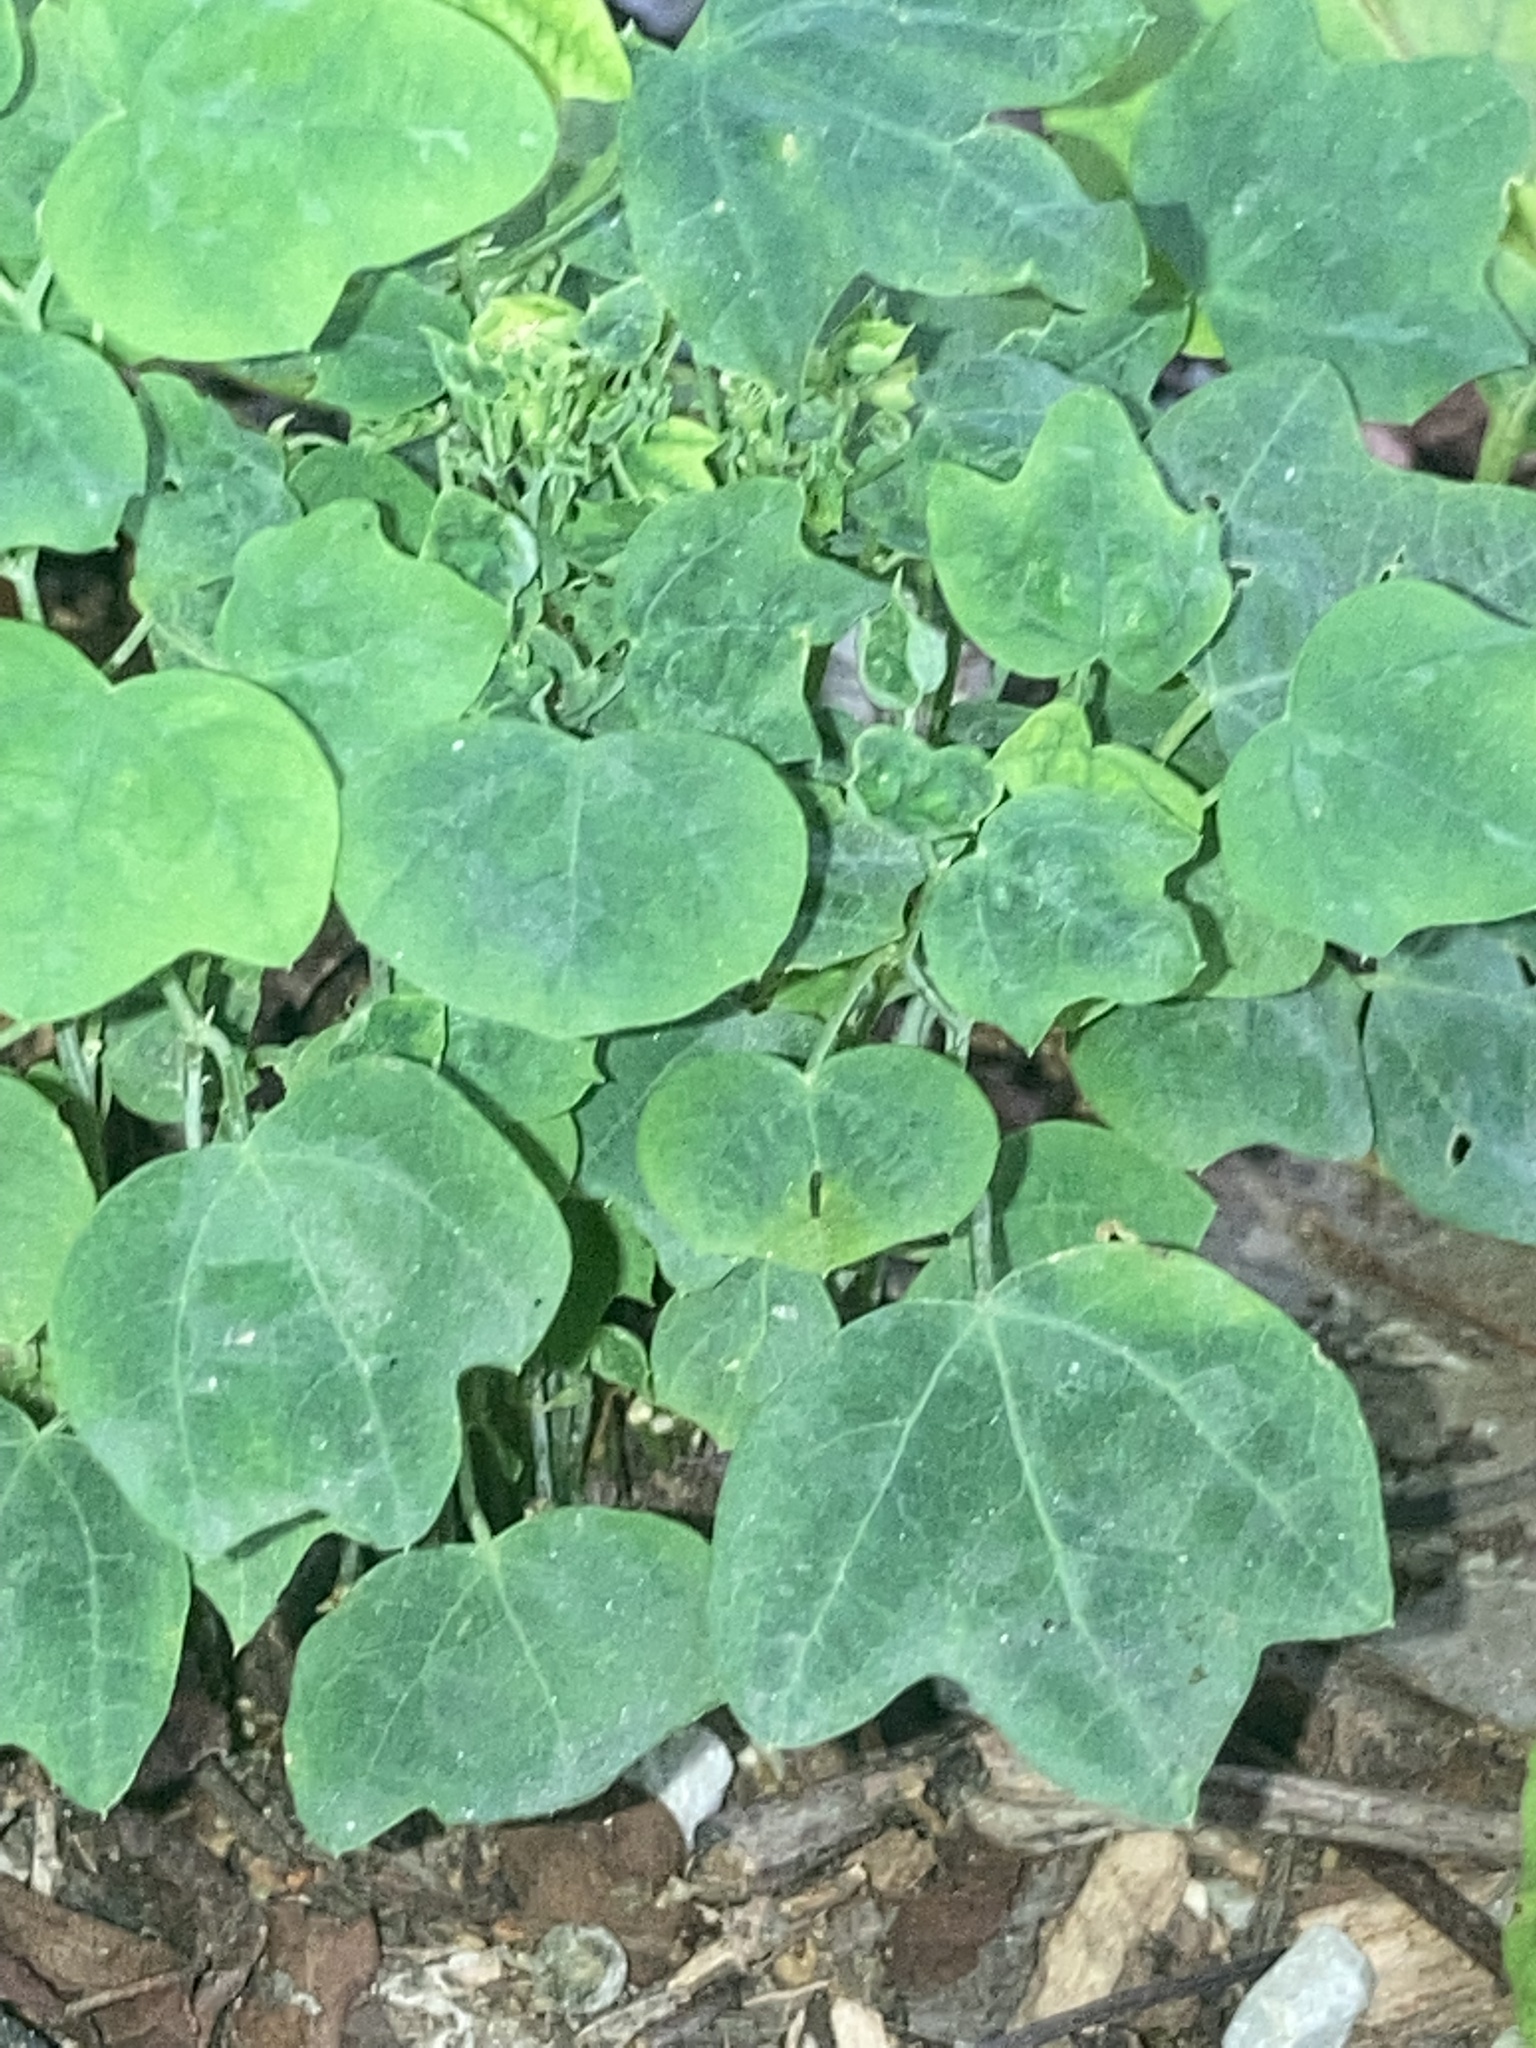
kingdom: Plantae
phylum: Tracheophyta
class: Magnoliopsida
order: Malpighiales
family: Passifloraceae
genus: Passiflora
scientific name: Passiflora lutea
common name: Yellow passionflower
